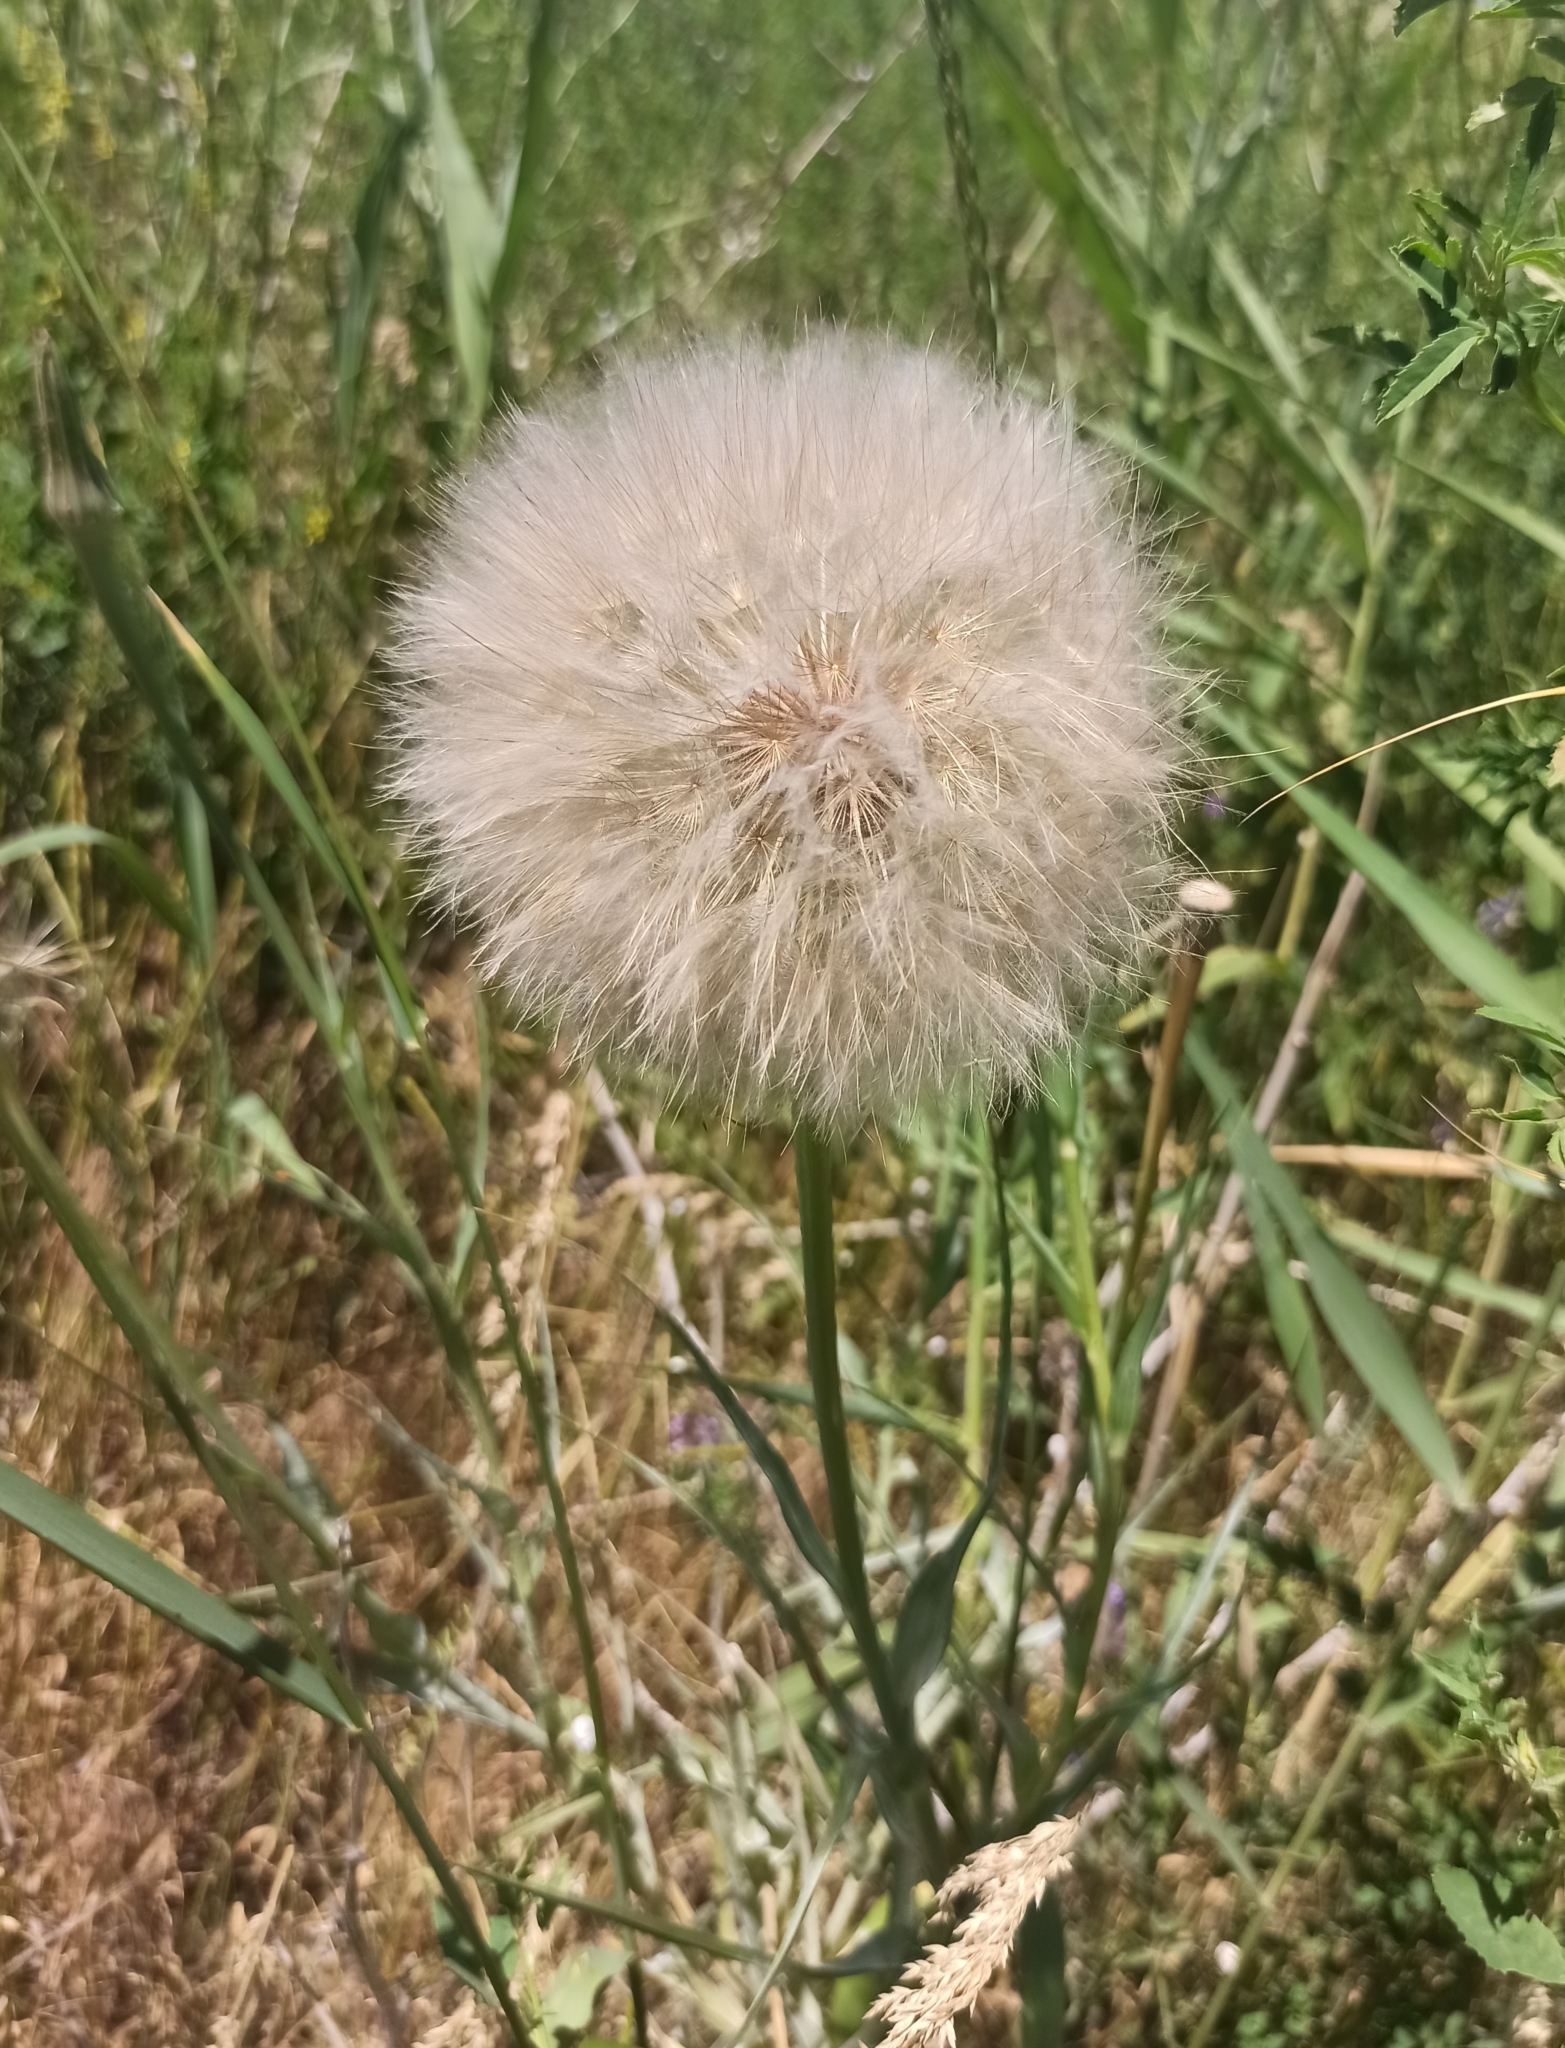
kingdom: Plantae
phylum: Tracheophyta
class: Magnoliopsida
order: Asterales
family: Asteraceae
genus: Tragopogon
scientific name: Tragopogon dubius
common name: Yellow salsify
